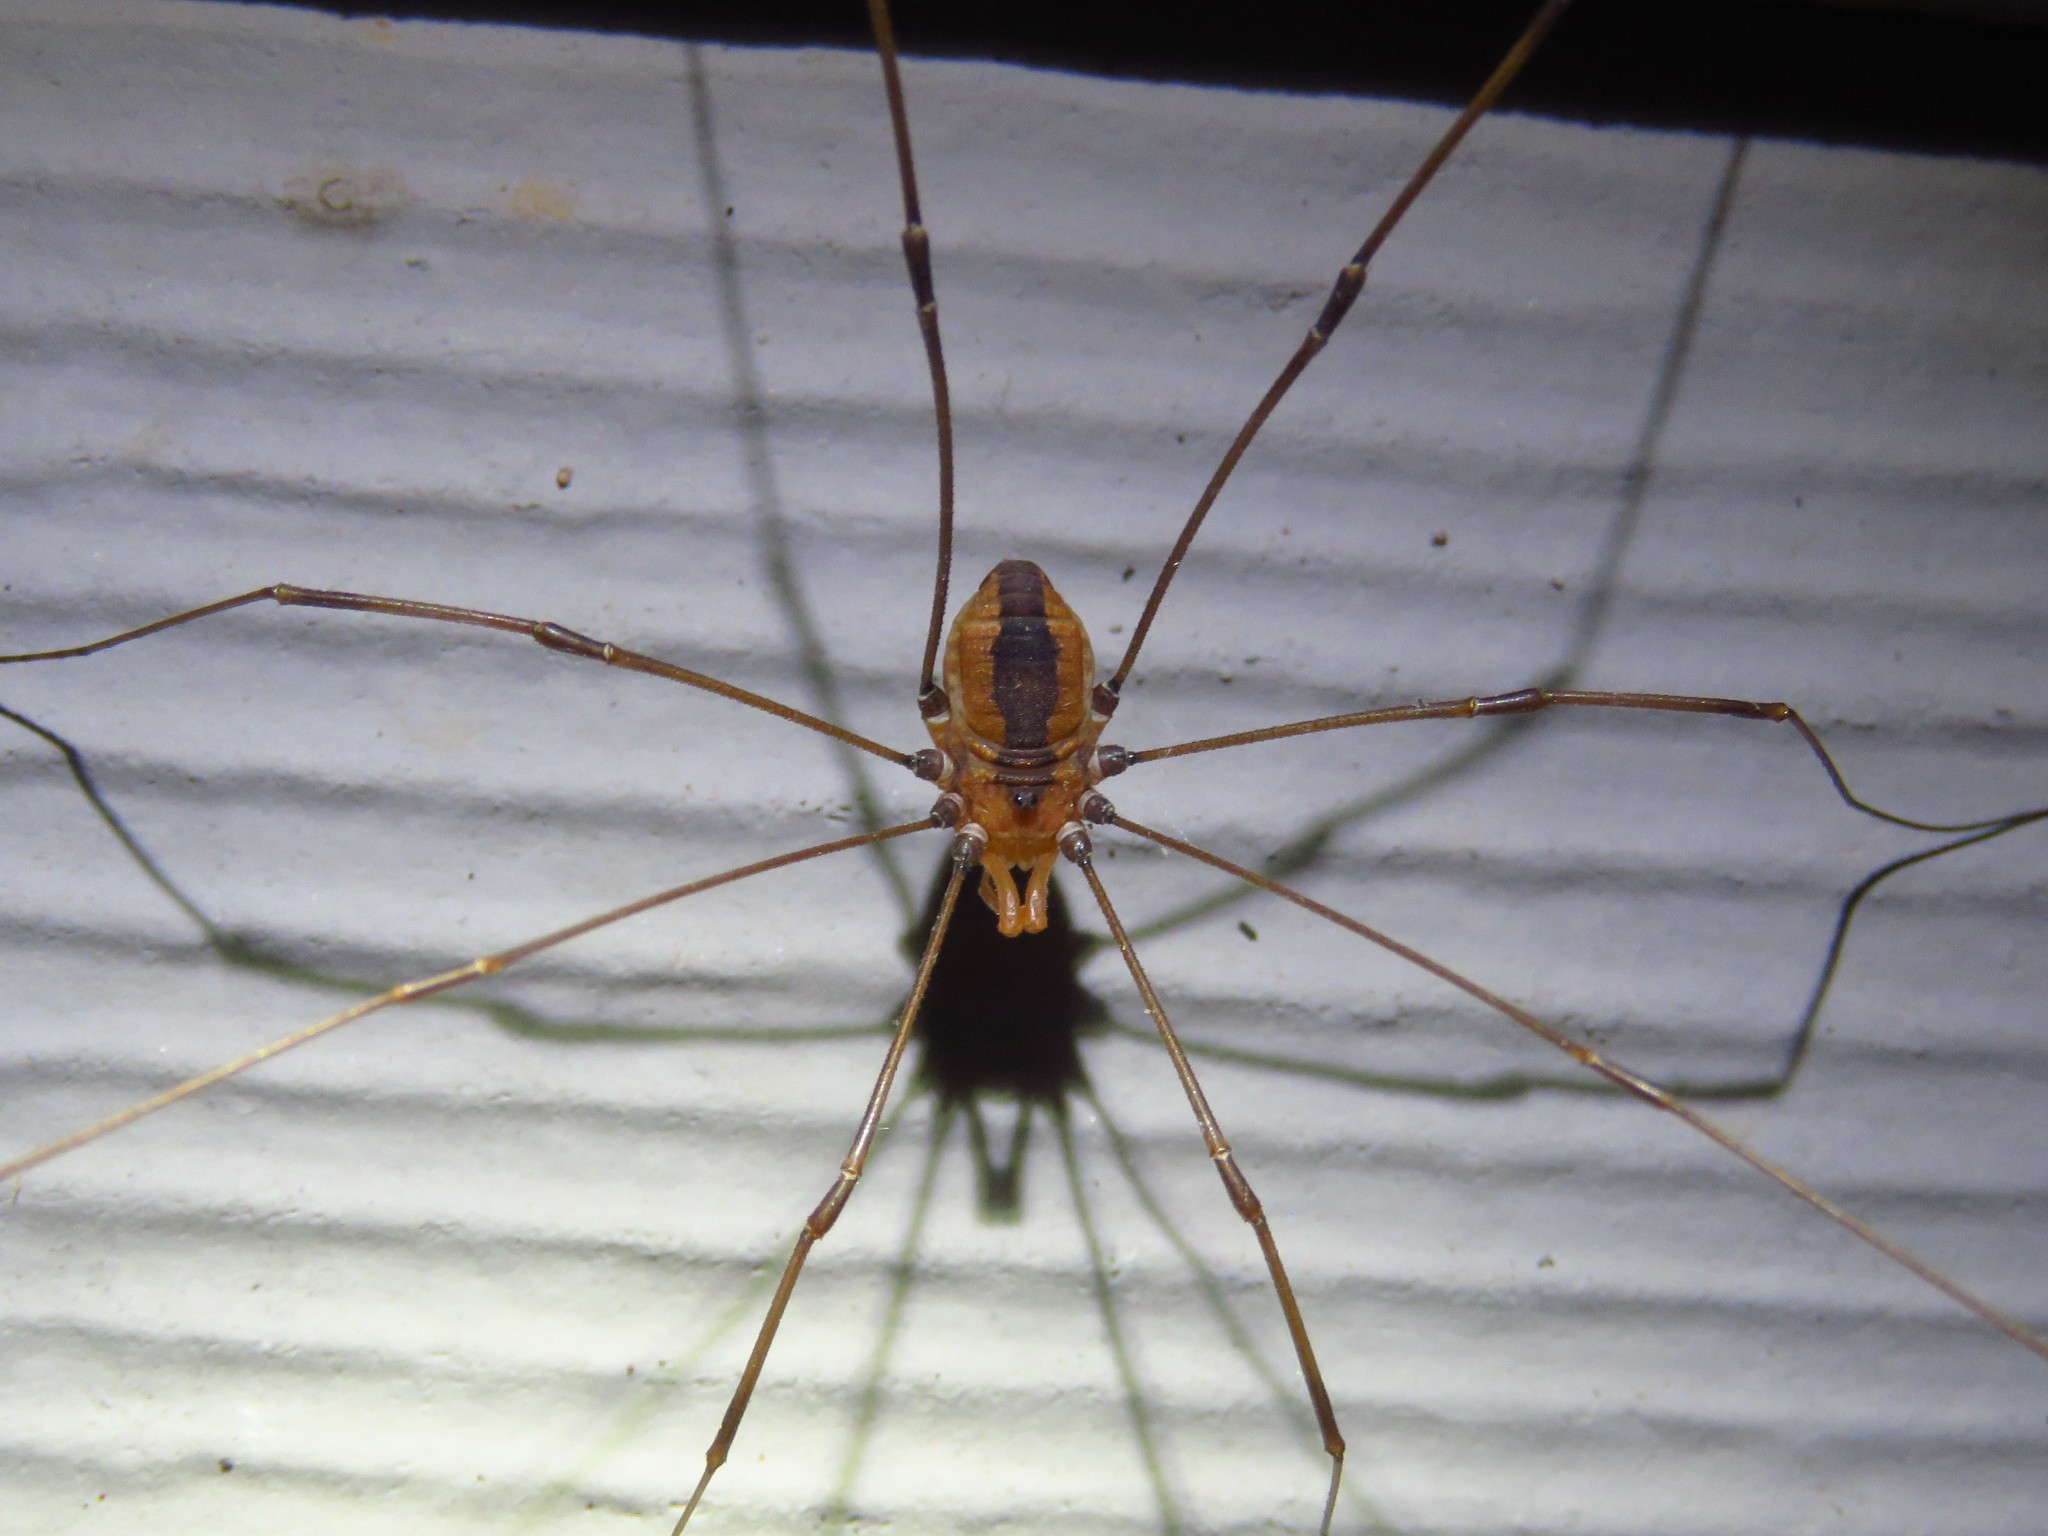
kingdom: Animalia
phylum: Arthropoda
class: Arachnida
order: Opiliones
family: Sclerosomatidae
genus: Leiobunum
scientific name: Leiobunum vittatum
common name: Eastern harvestman
